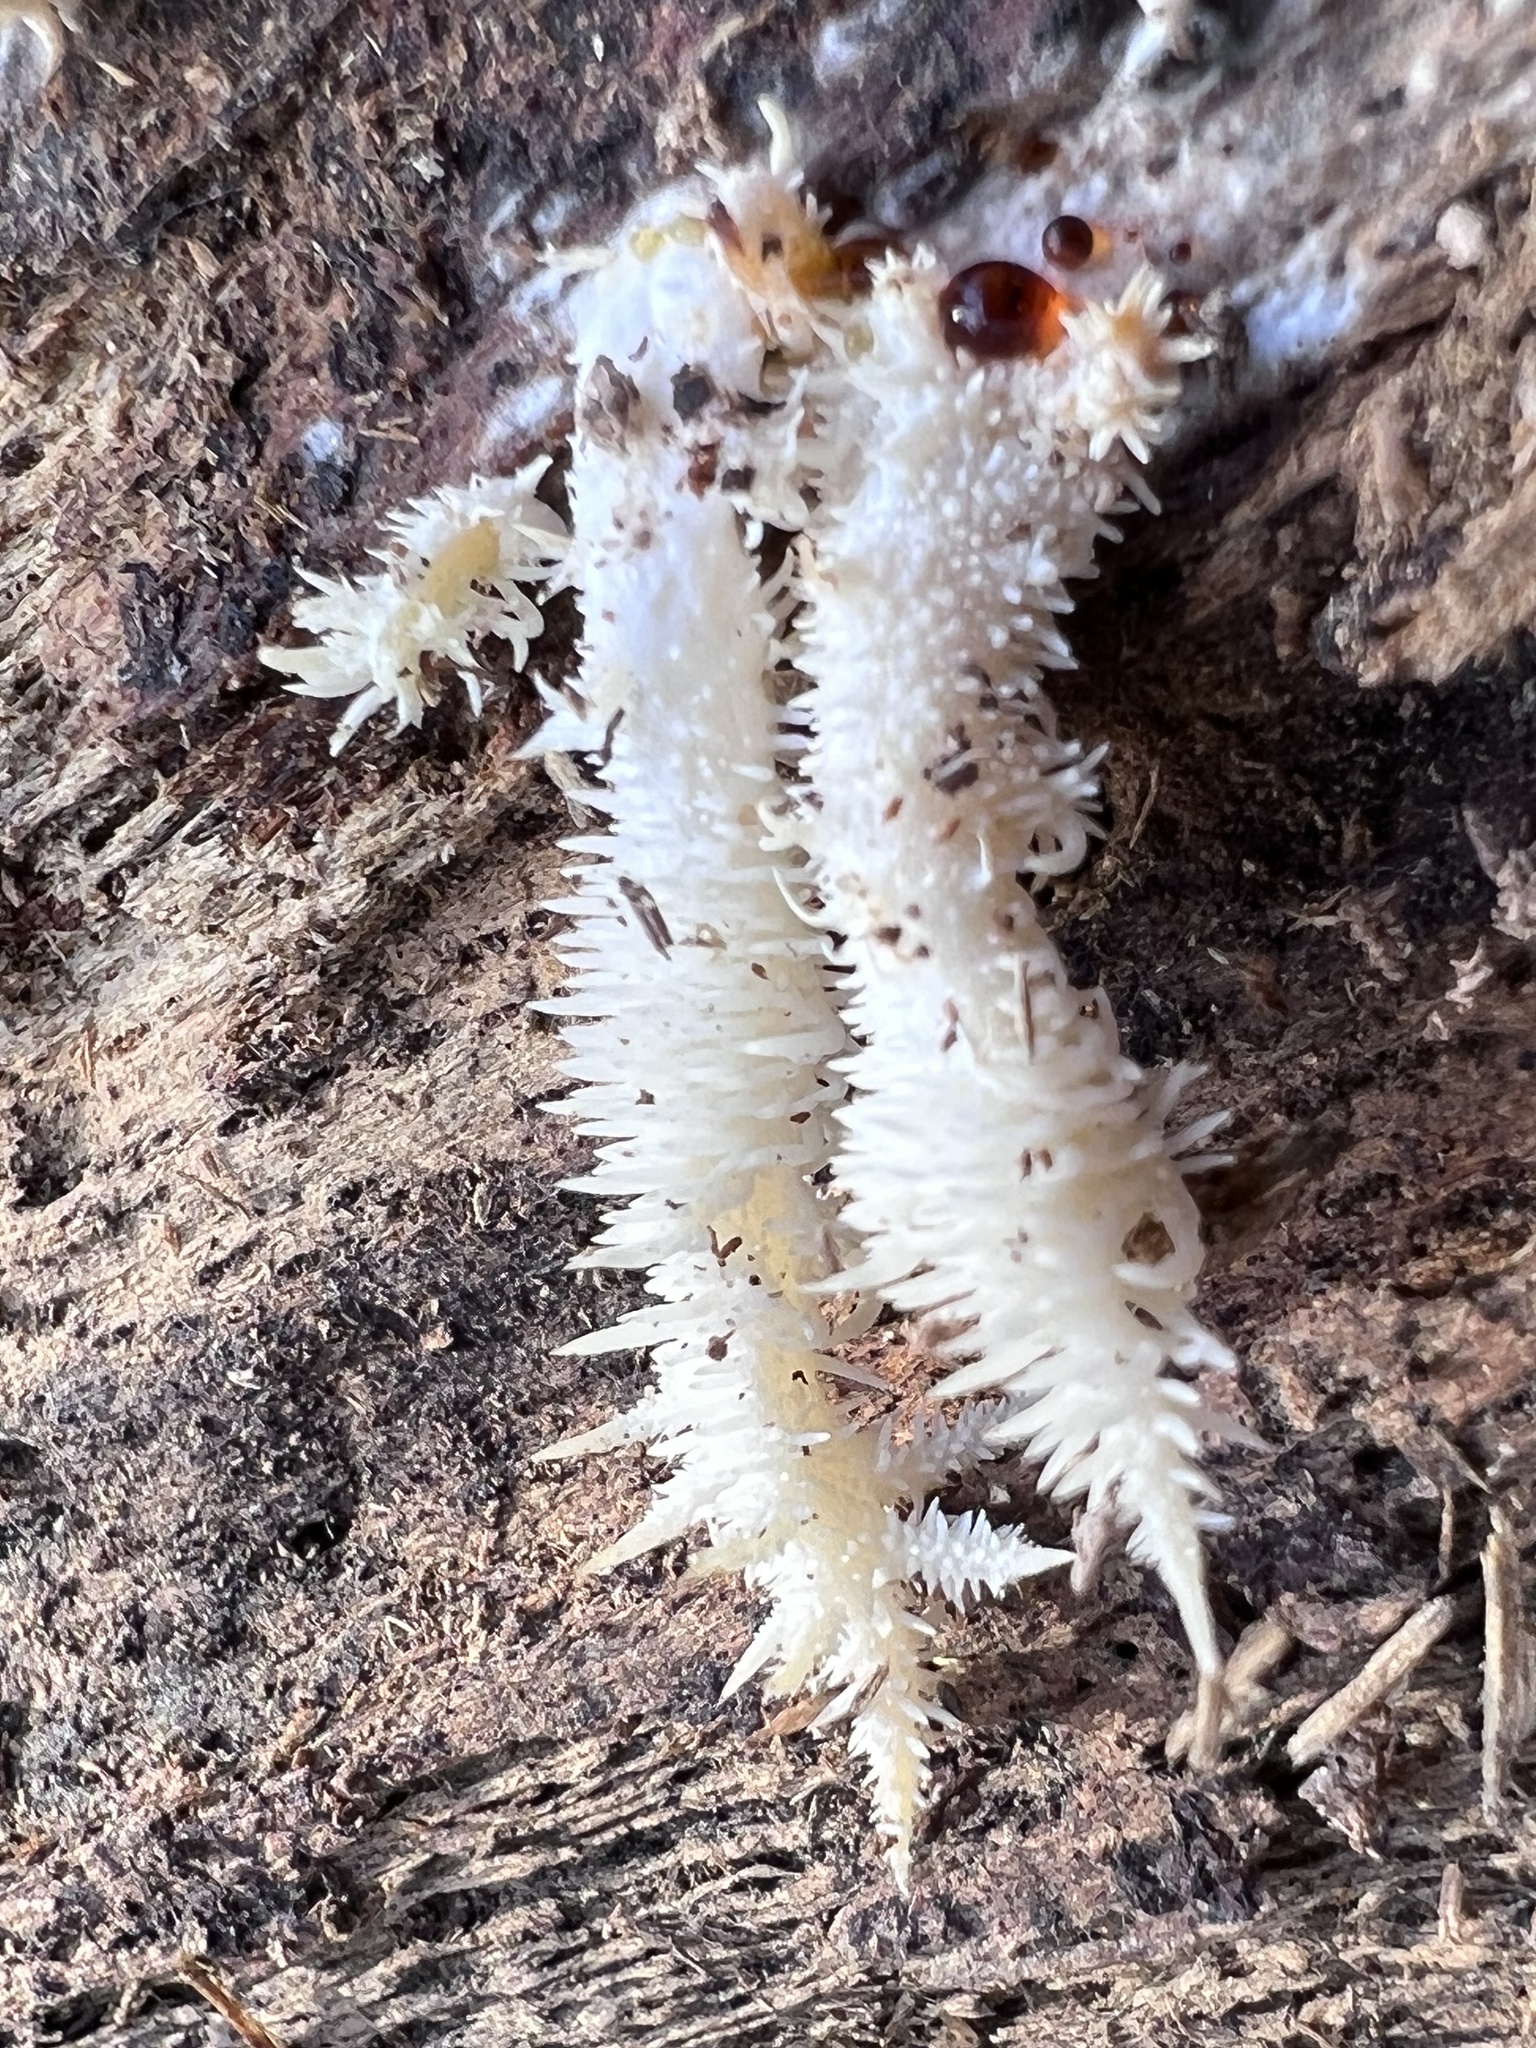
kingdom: Fungi
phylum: Basidiomycota
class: Agaricomycetes
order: Russulales
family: Hericiaceae
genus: Hericium
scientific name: Hericium coralloides
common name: Coral tooth
